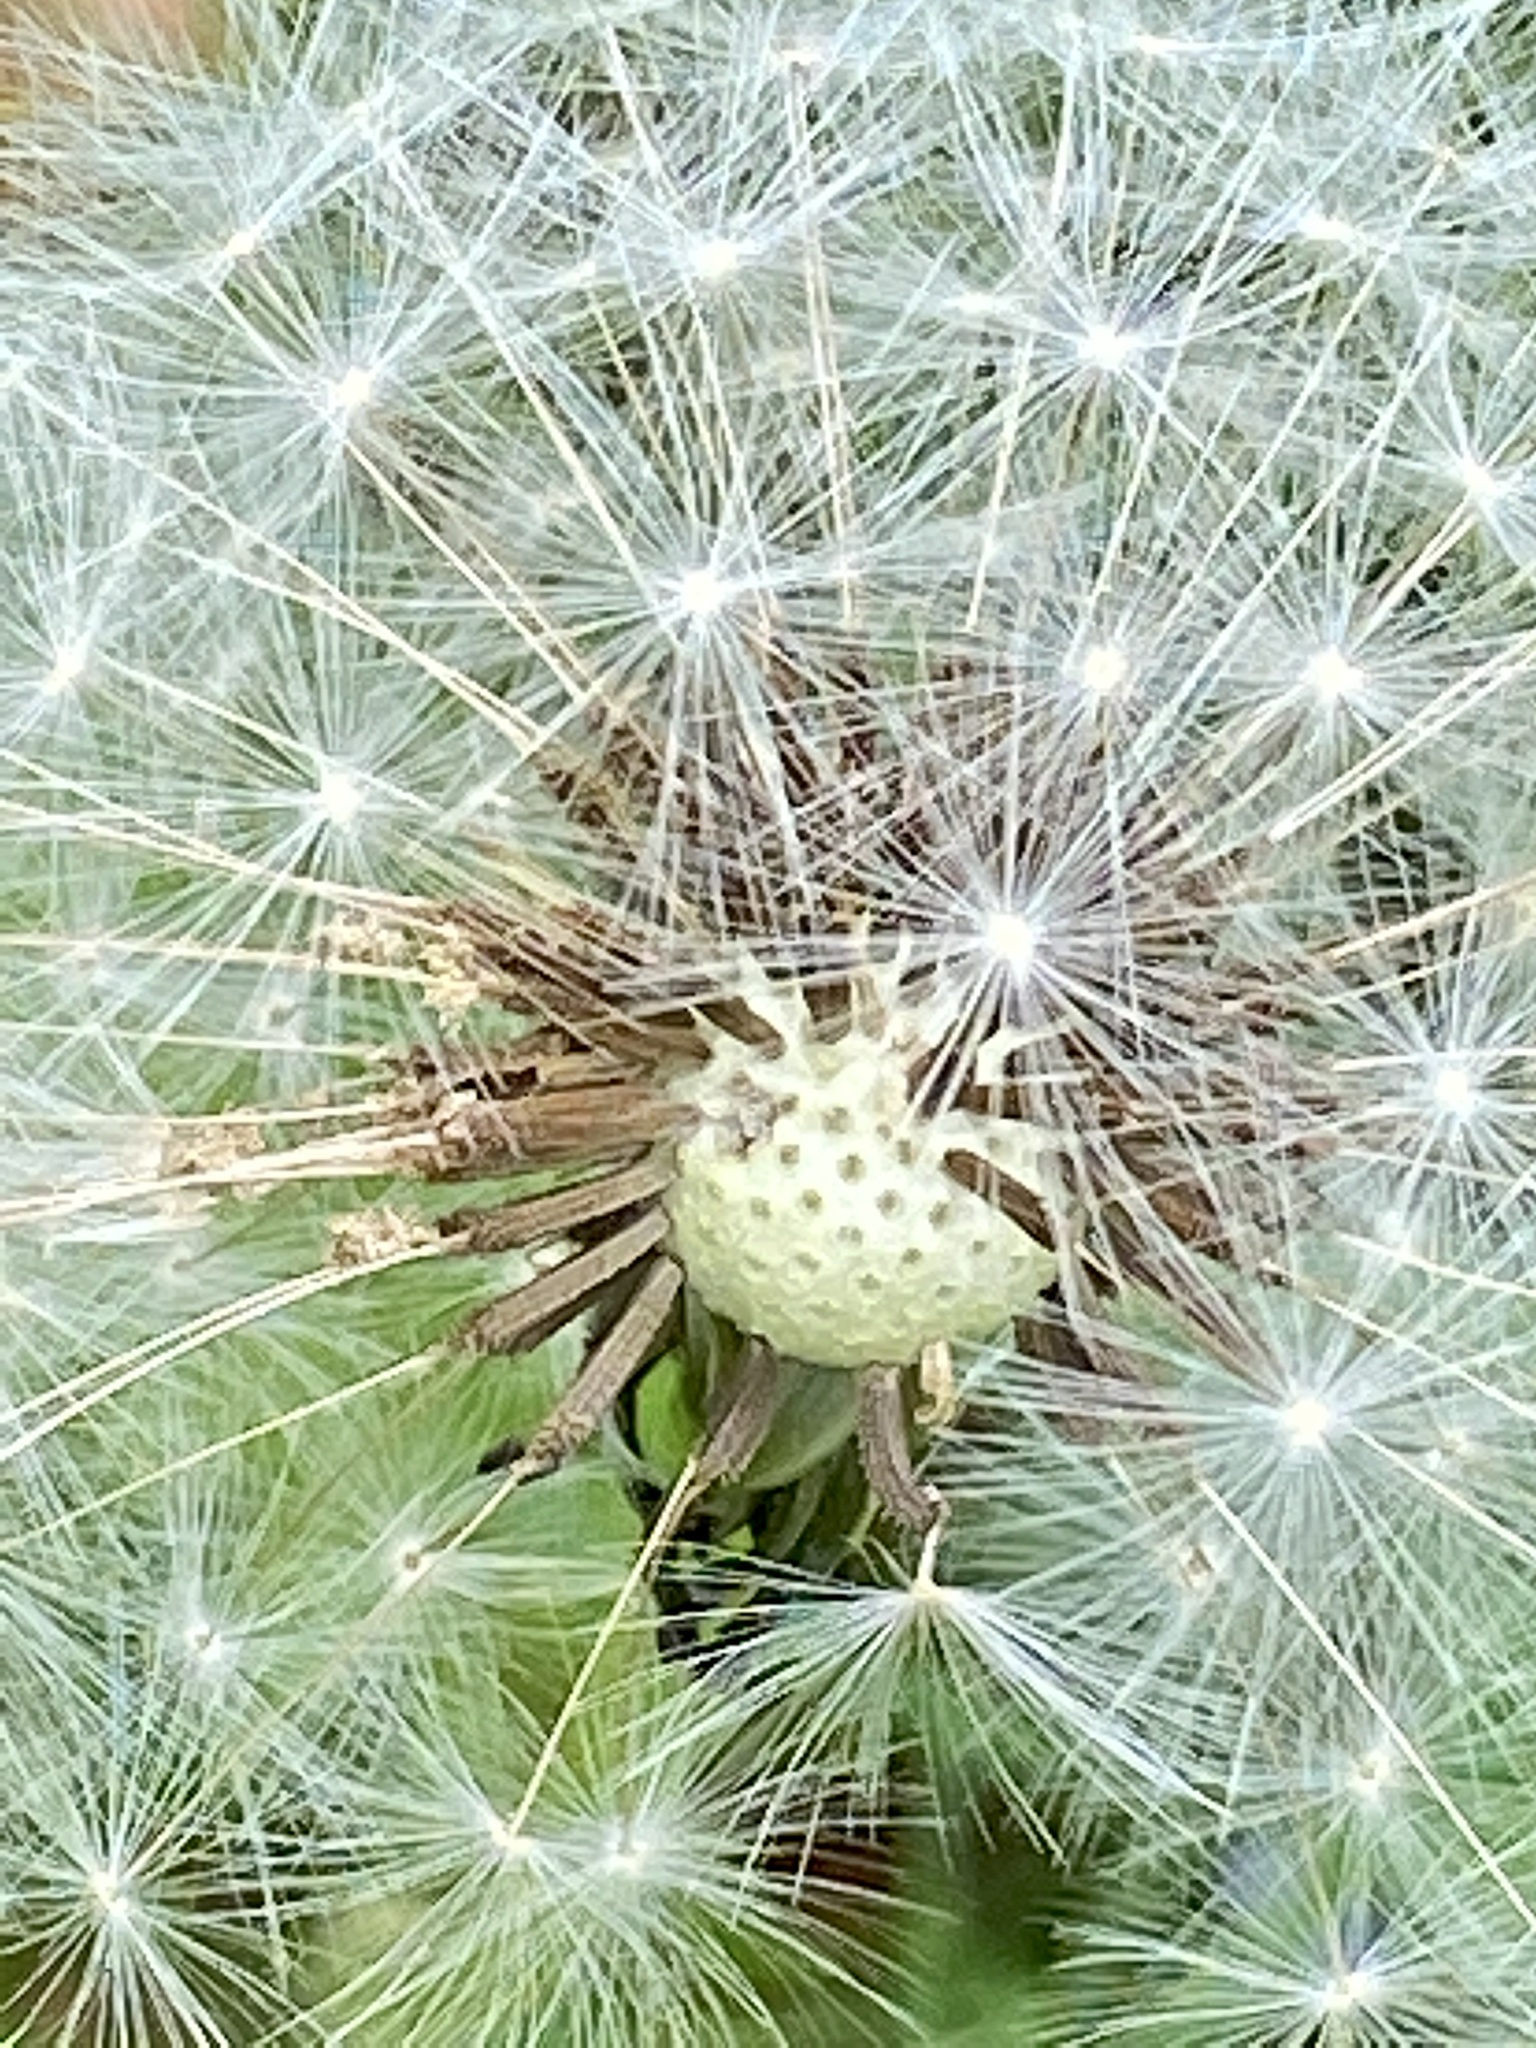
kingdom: Plantae
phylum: Tracheophyta
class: Magnoliopsida
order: Asterales
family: Asteraceae
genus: Taraxacum
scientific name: Taraxacum officinale
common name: Common dandelion
